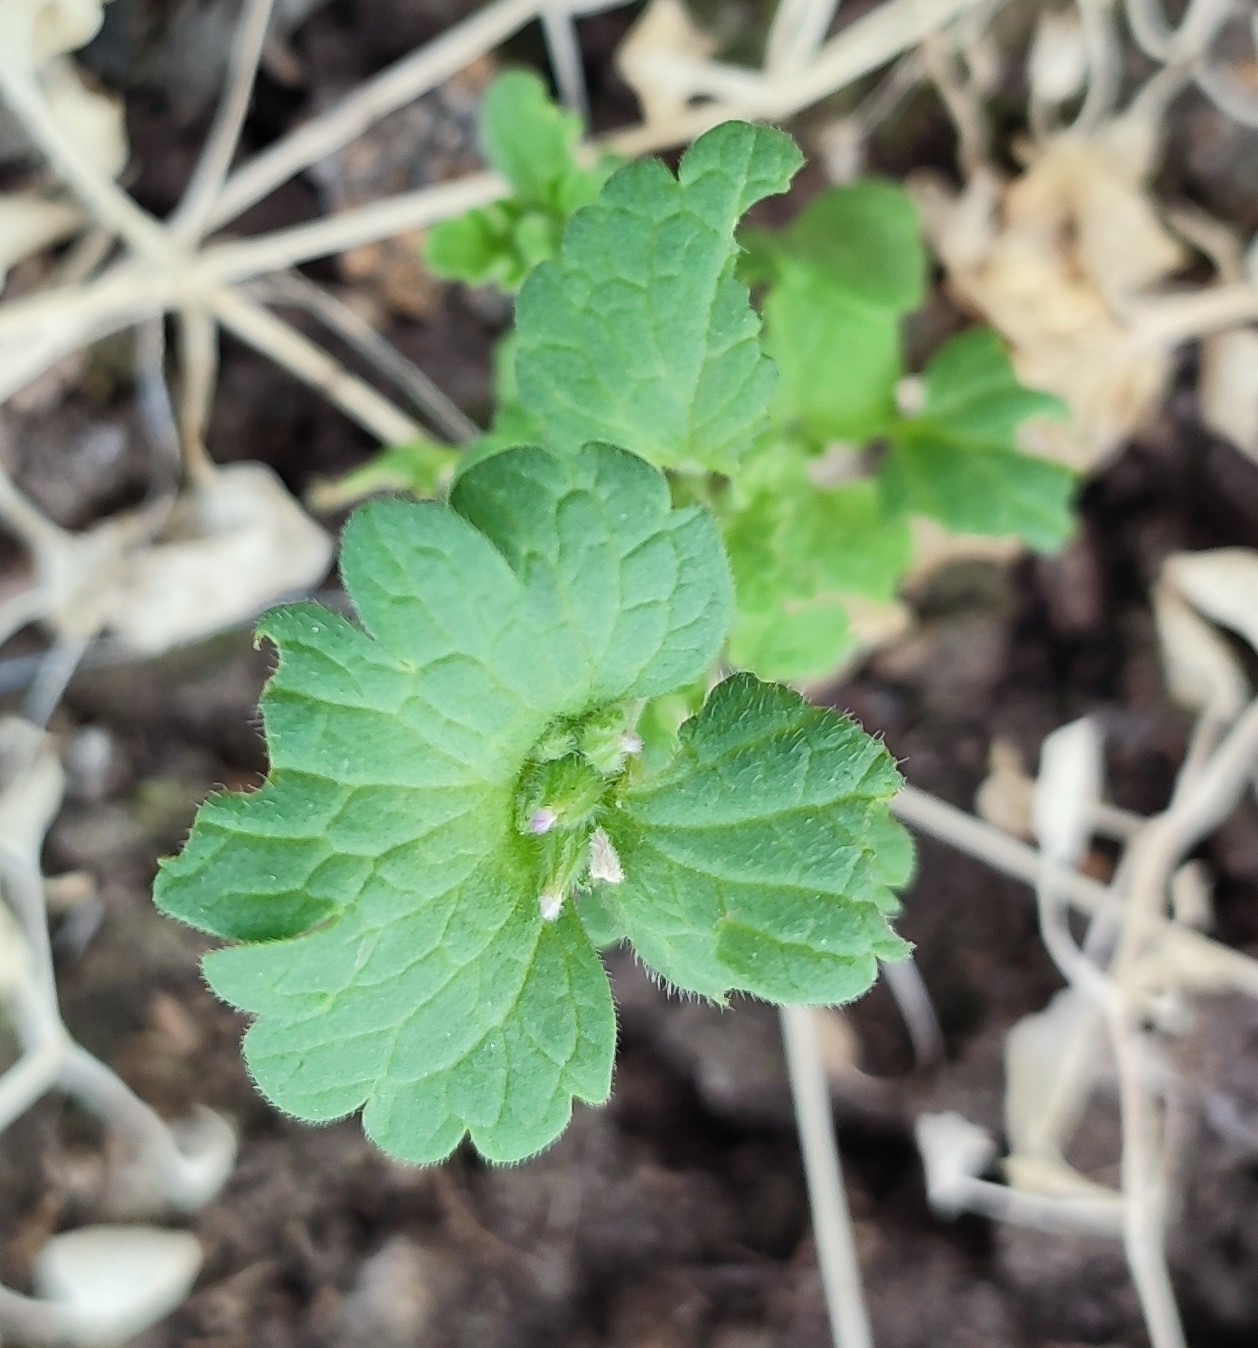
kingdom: Plantae
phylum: Tracheophyta
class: Magnoliopsida
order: Lamiales
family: Lamiaceae
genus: Lamium
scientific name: Lamium amplexicaule
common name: Henbit dead-nettle
